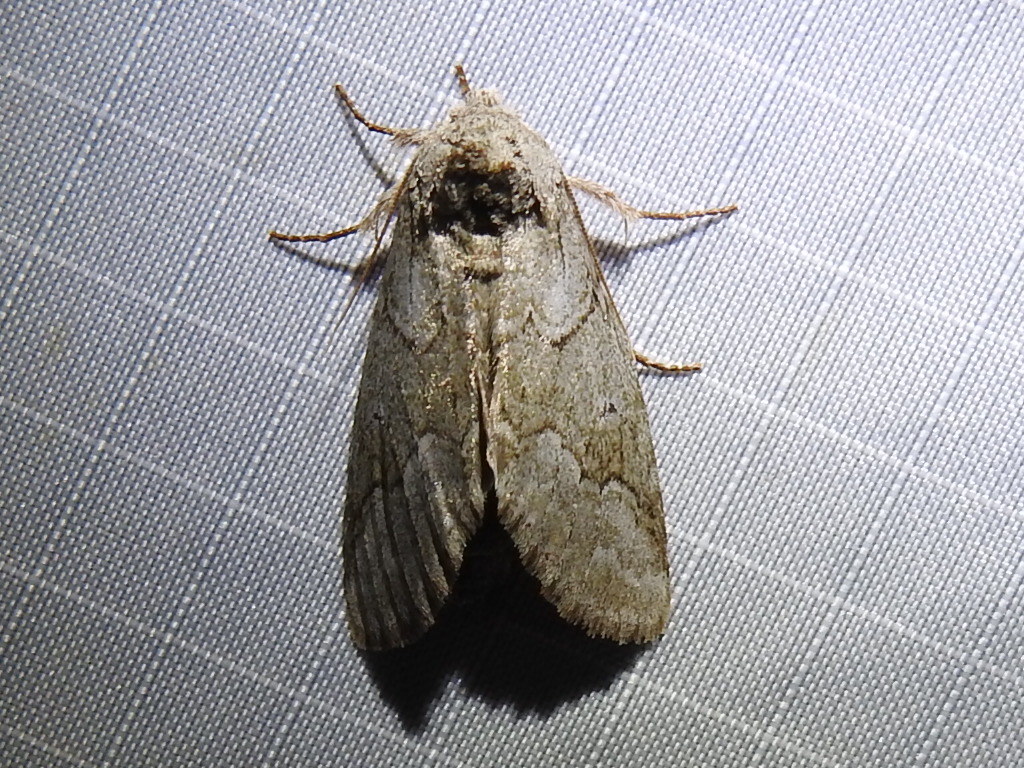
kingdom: Animalia
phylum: Arthropoda
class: Insecta
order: Lepidoptera
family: Notodontidae
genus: Lochmaeus
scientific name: Lochmaeus bilineata
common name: Double-lined prominent
